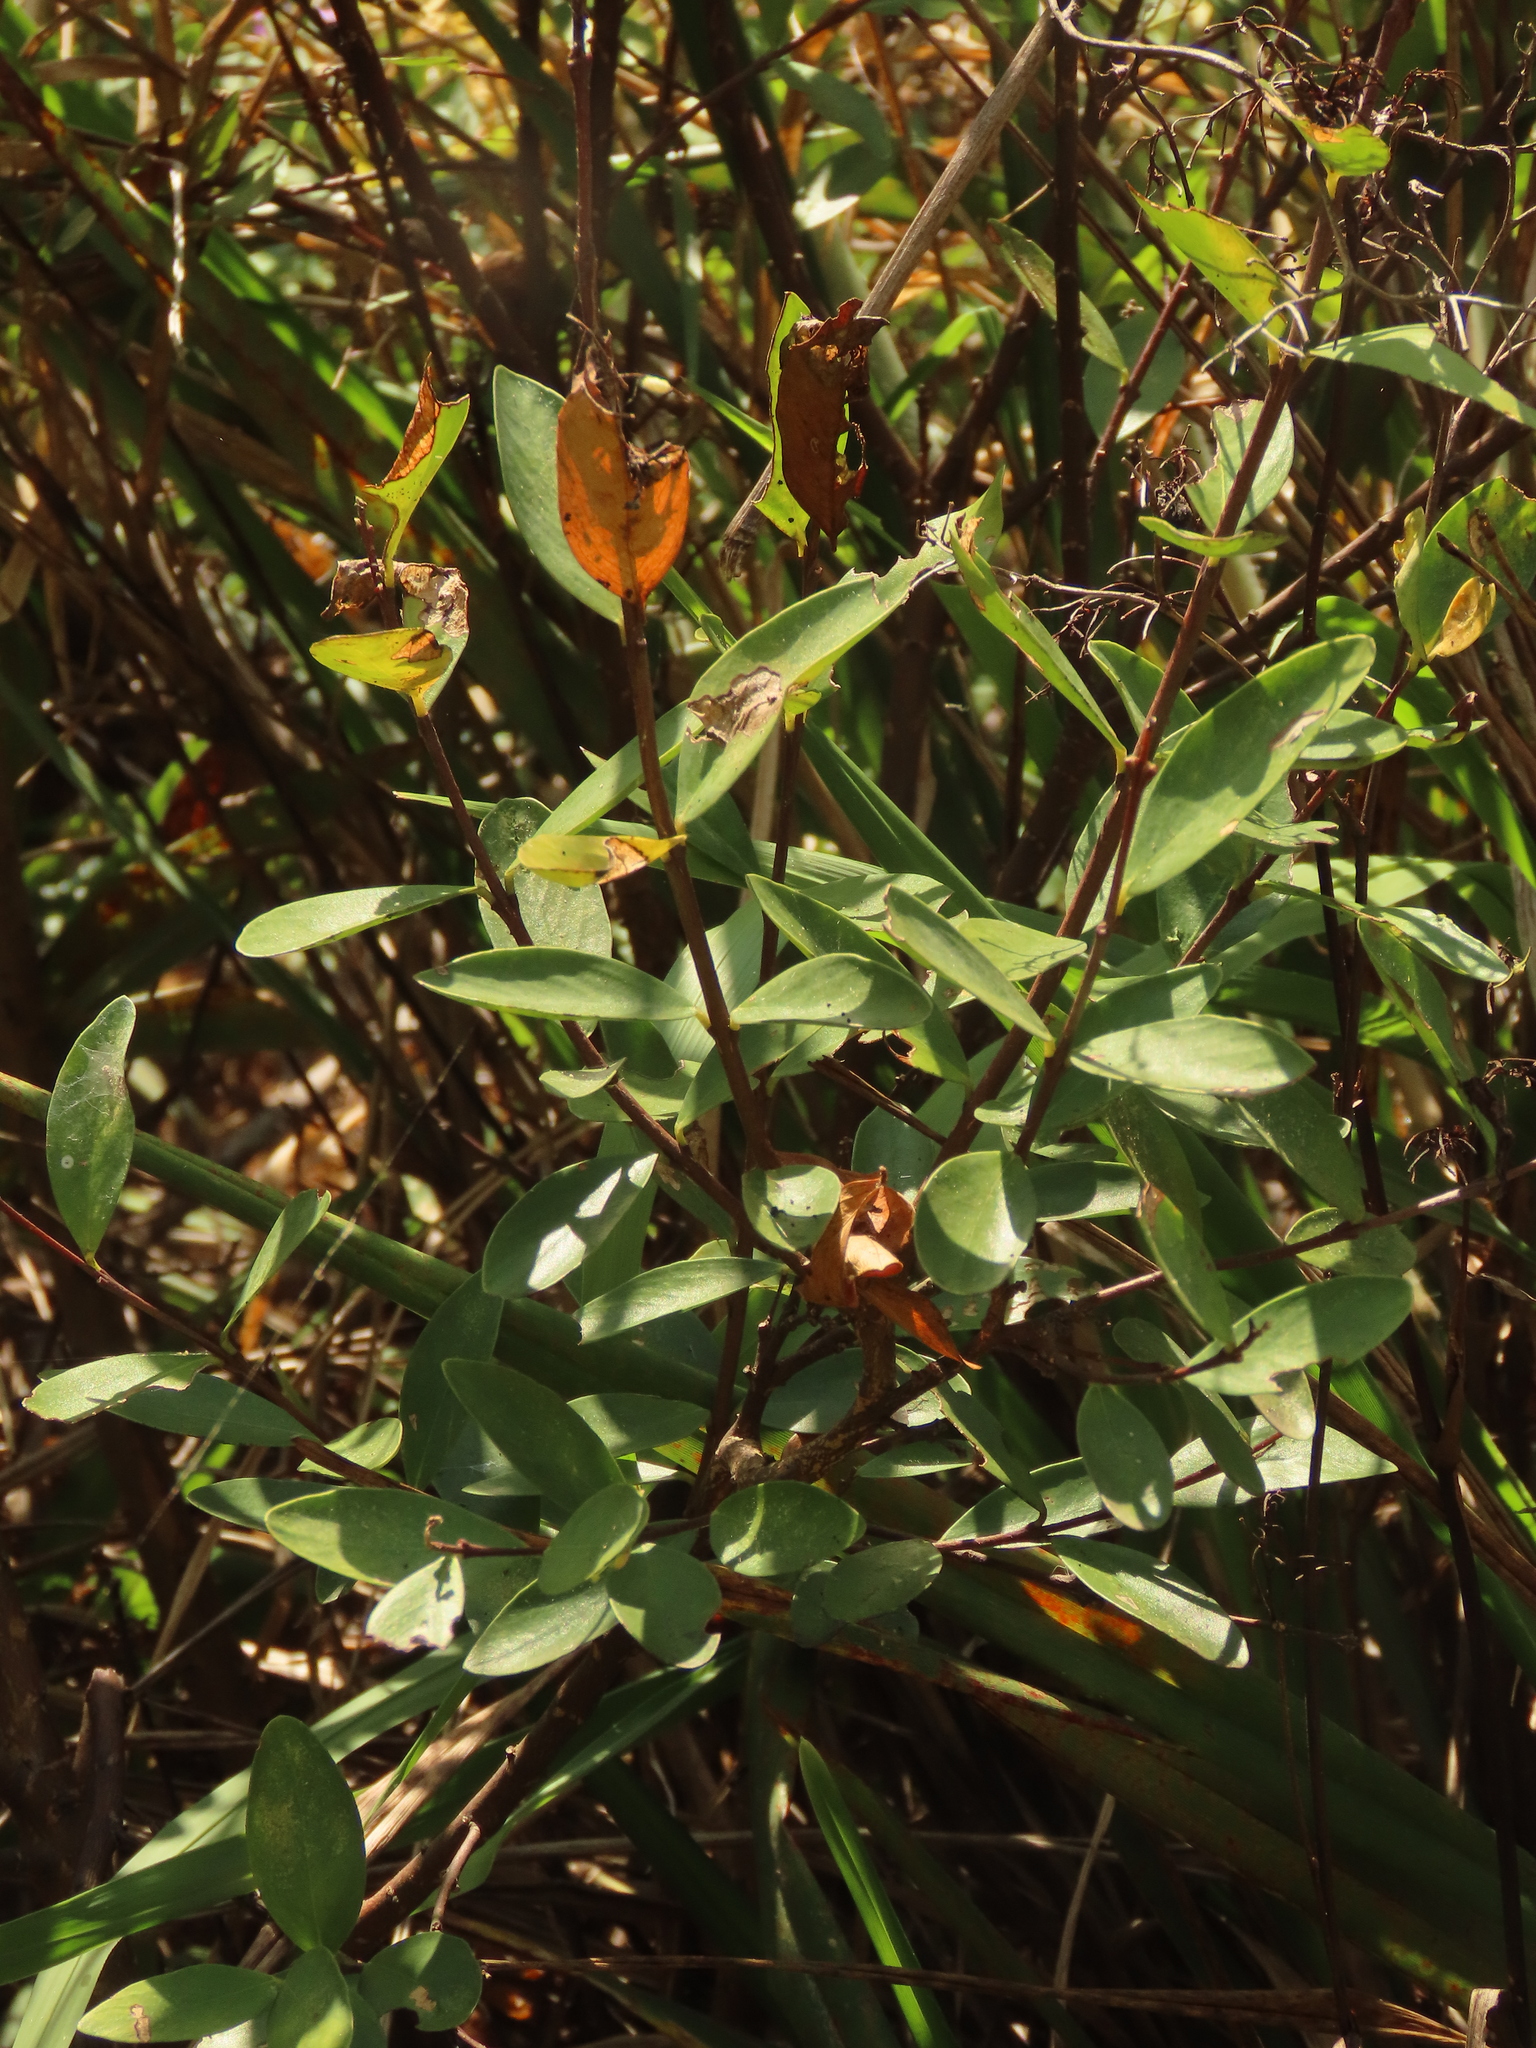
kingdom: Plantae
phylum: Tracheophyta
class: Magnoliopsida
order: Malvales
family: Thymelaeaceae
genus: Wikstroemia
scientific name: Wikstroemia indica
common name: Tiebush
